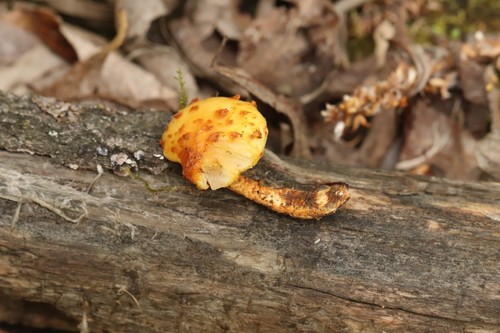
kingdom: Fungi
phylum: Basidiomycota
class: Agaricomycetes
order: Agaricales
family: Strophariaceae
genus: Pholiota
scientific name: Pholiota
